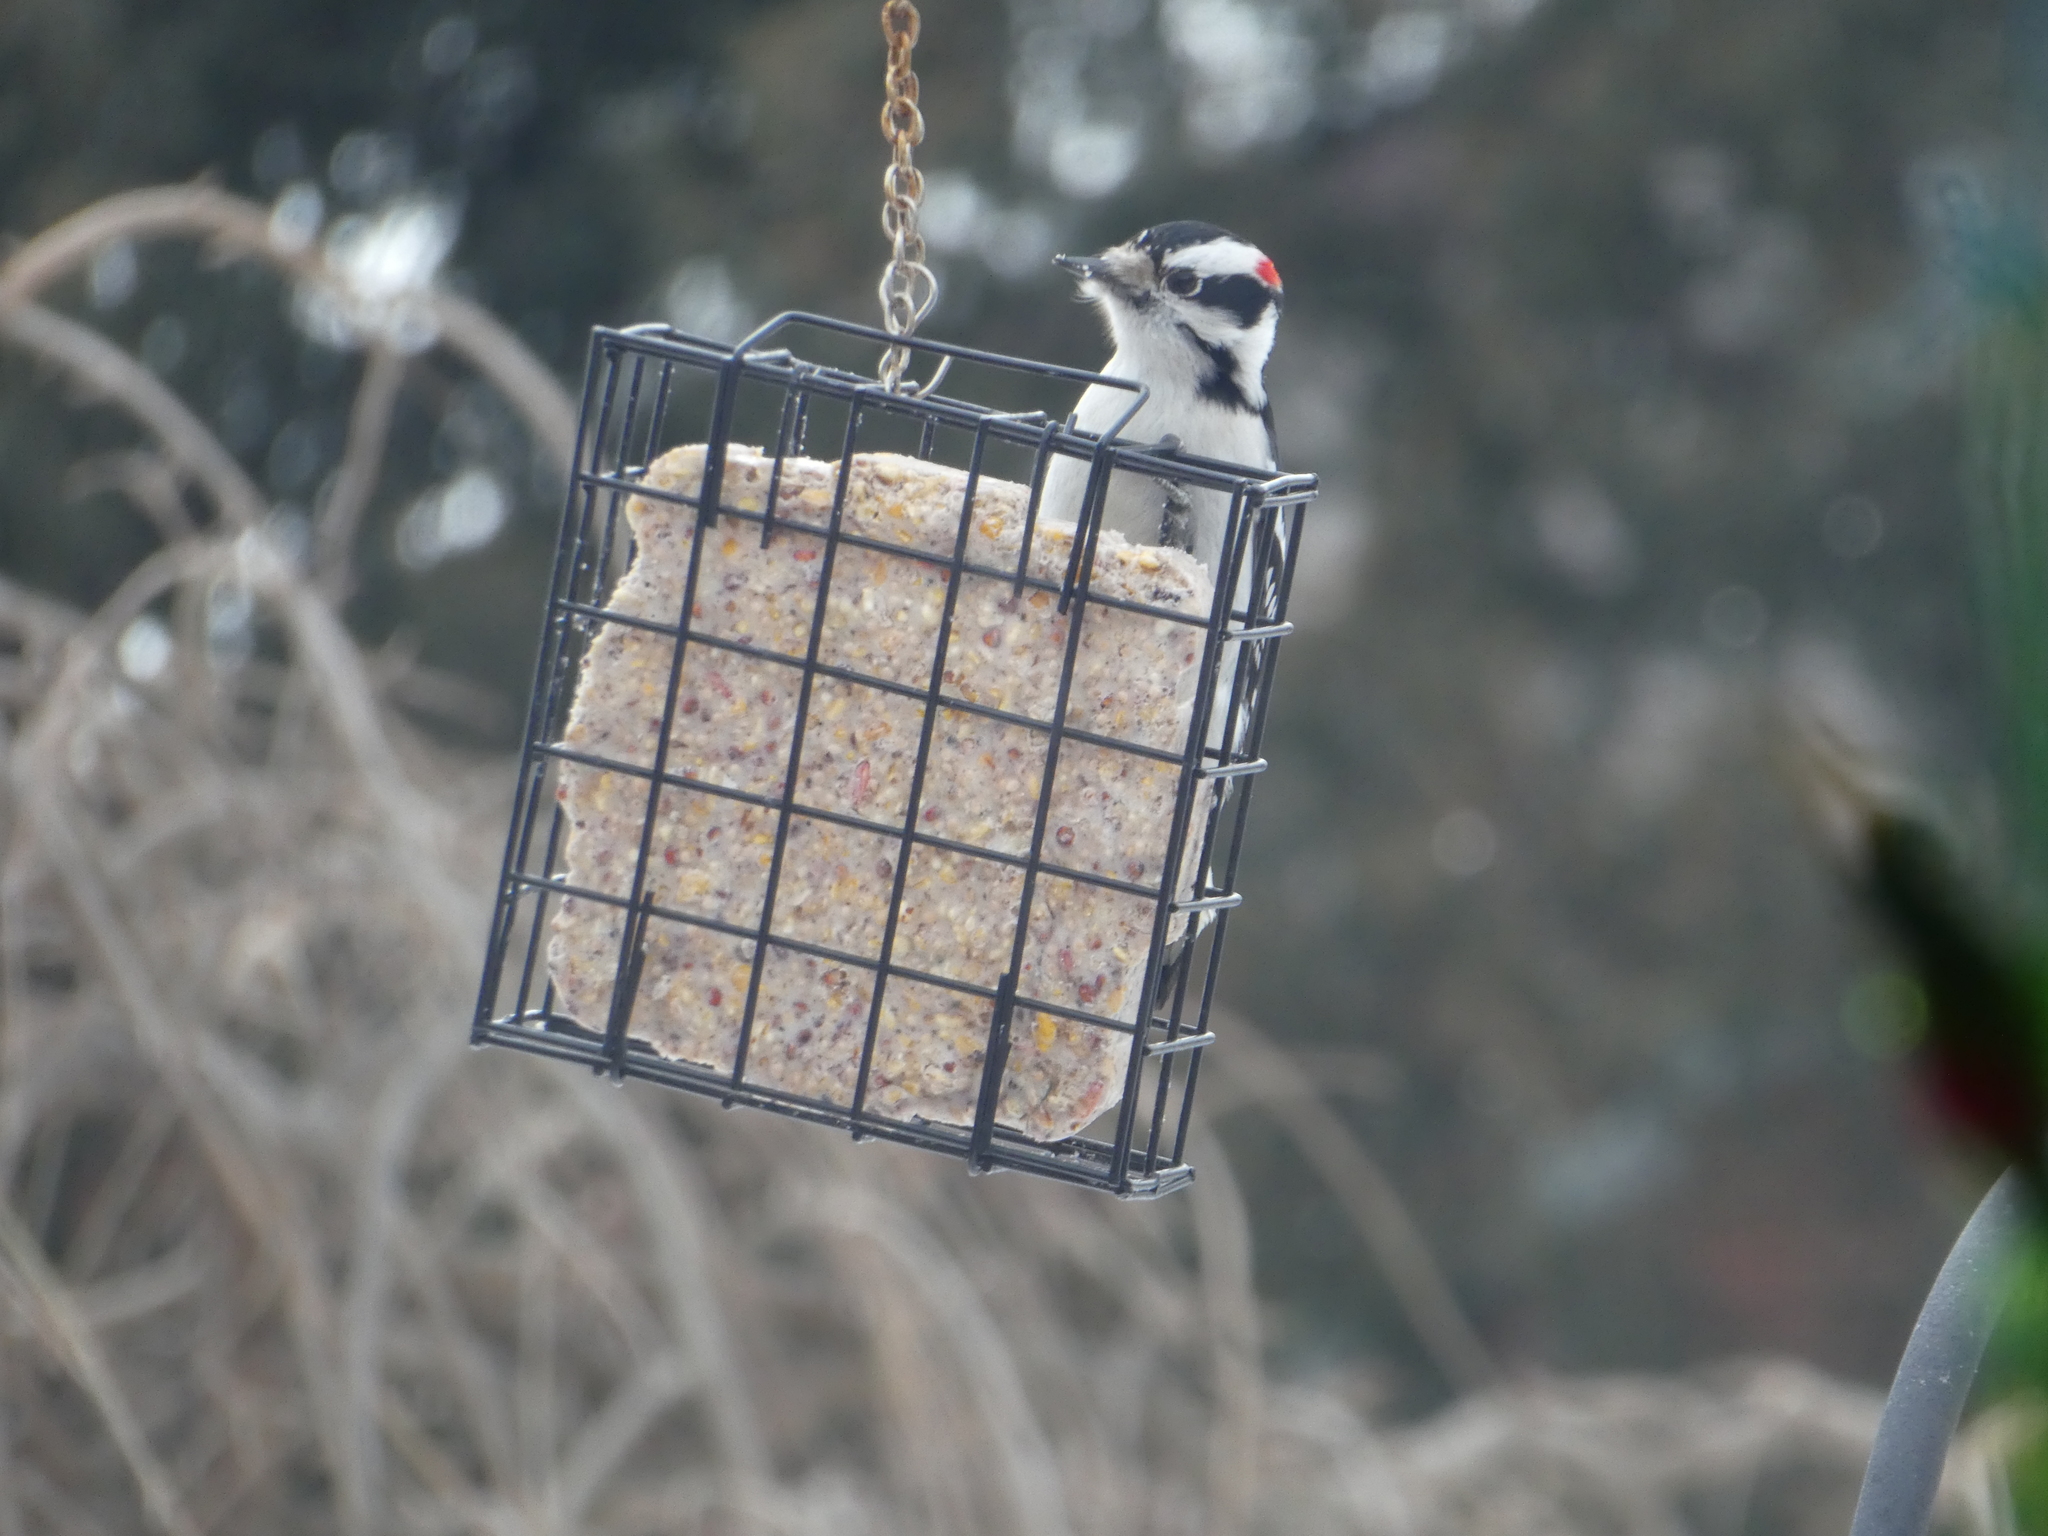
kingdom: Animalia
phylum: Chordata
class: Aves
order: Piciformes
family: Picidae
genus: Dryobates
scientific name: Dryobates pubescens
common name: Downy woodpecker
